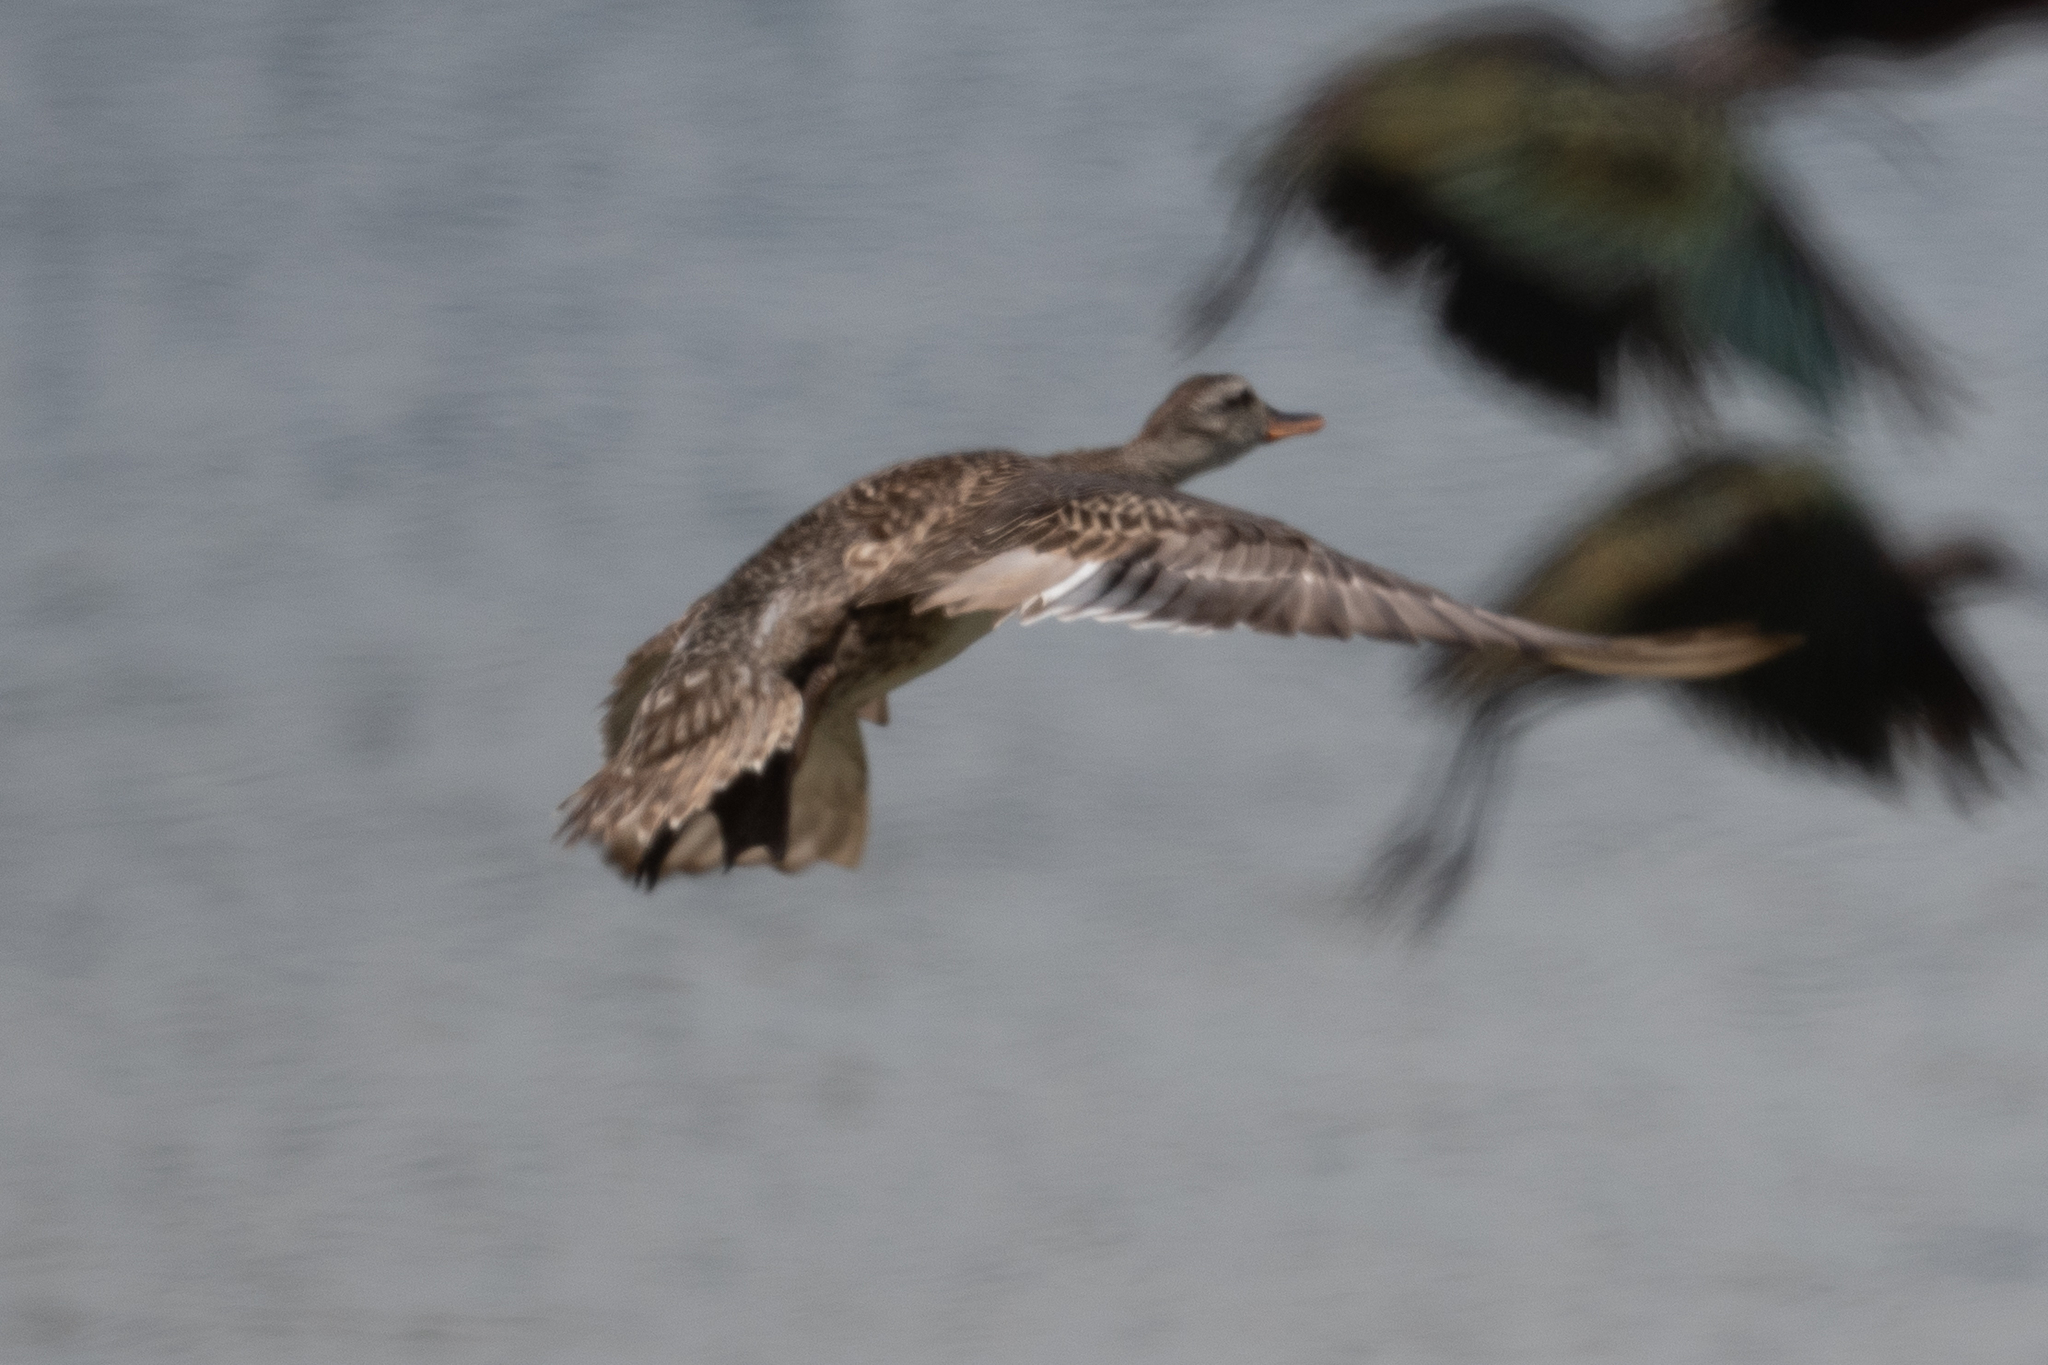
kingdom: Animalia
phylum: Chordata
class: Aves
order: Anseriformes
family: Anatidae
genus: Mareca
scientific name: Mareca strepera
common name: Gadwall
